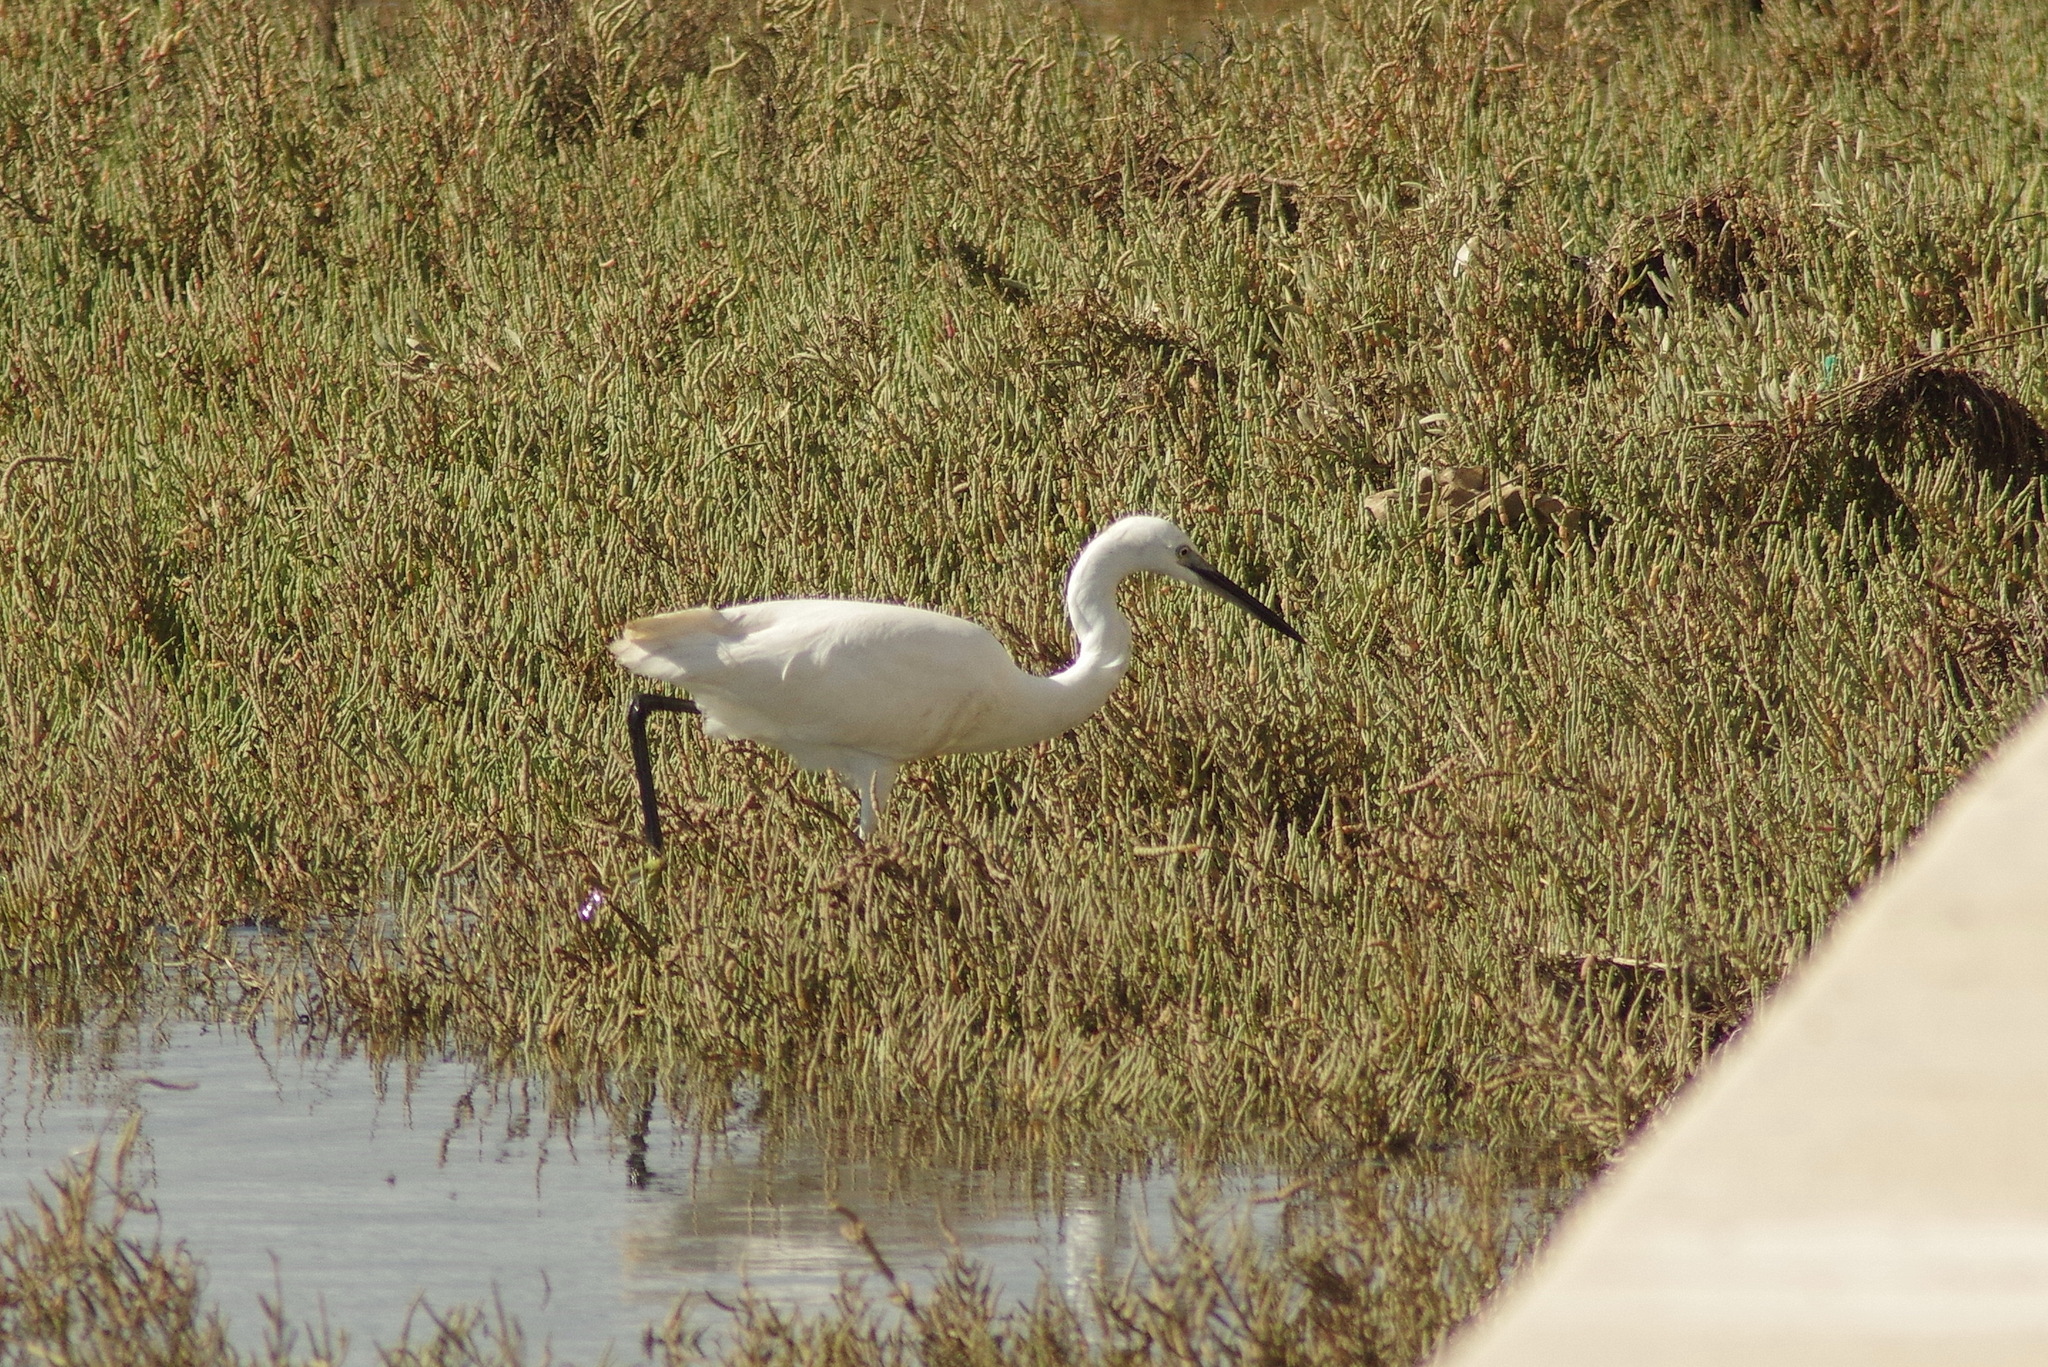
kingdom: Animalia
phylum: Chordata
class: Aves
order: Pelecaniformes
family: Ardeidae
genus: Egretta
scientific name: Egretta garzetta
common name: Little egret
